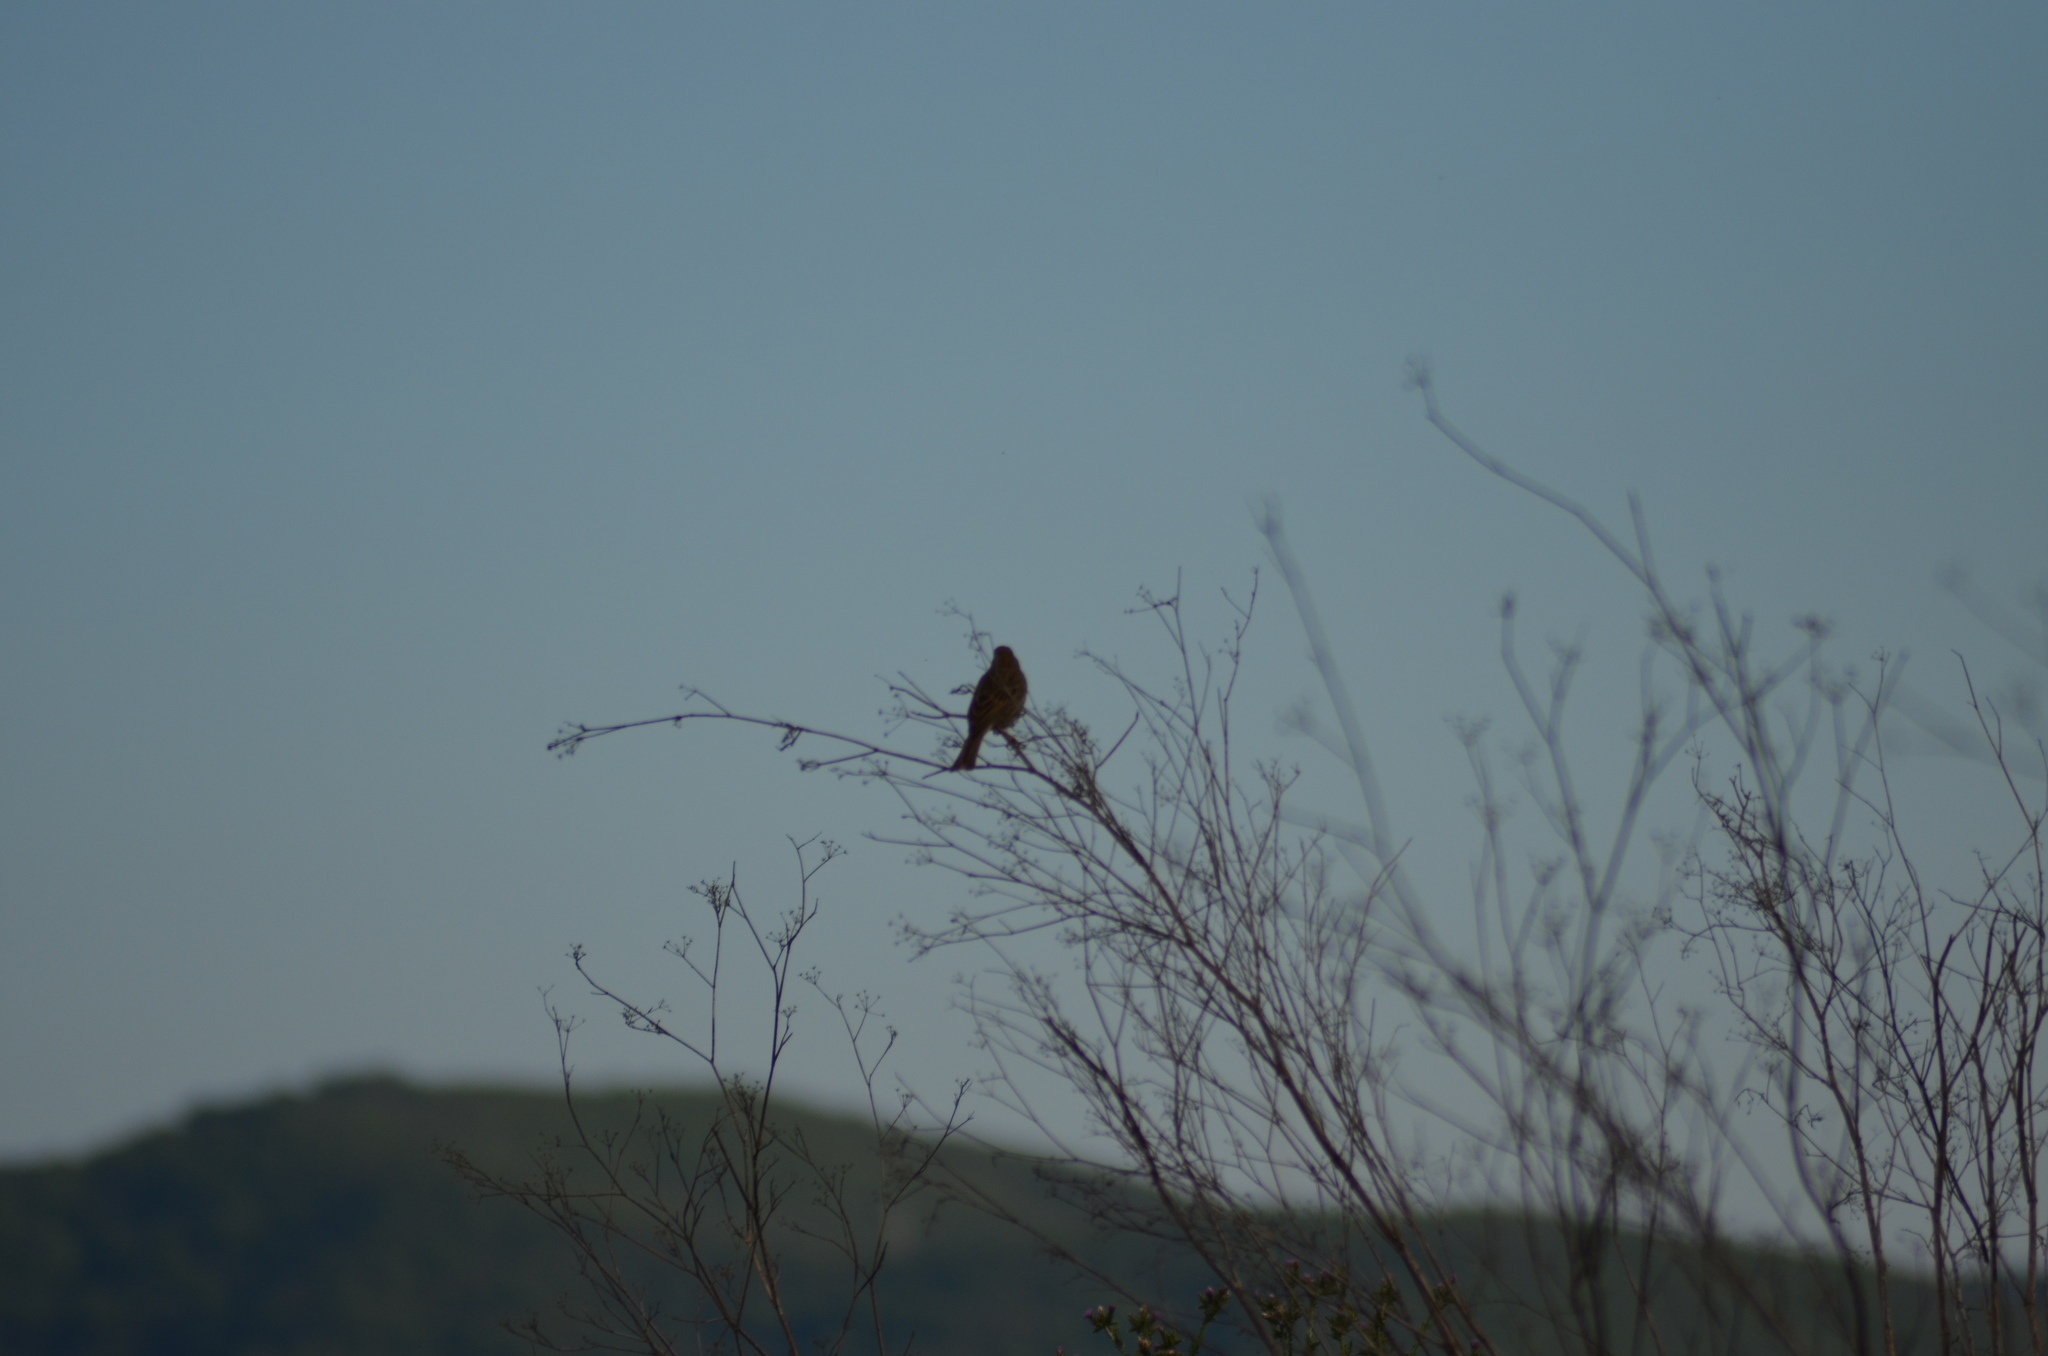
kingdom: Animalia
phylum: Chordata
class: Aves
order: Passeriformes
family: Emberizidae
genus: Emberiza
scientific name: Emberiza calandra
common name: Corn bunting
